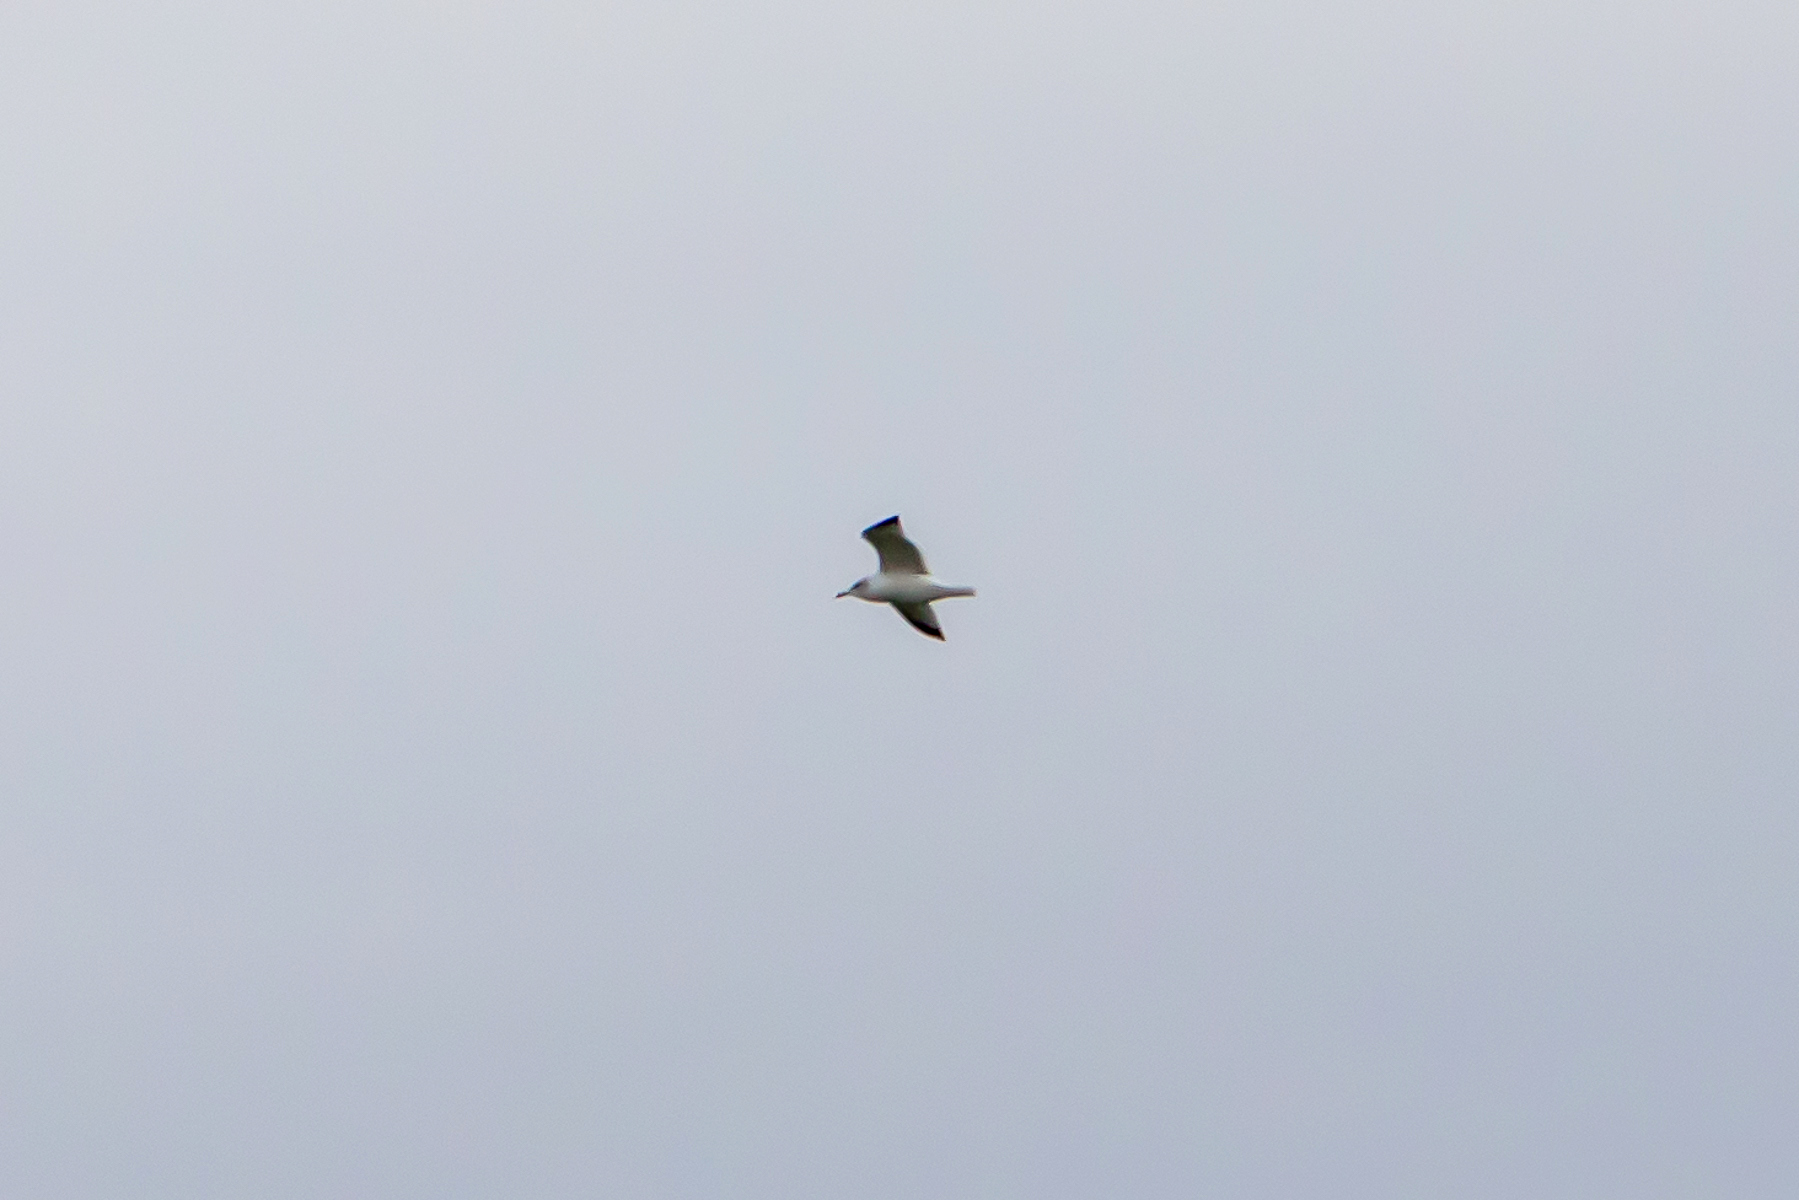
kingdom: Animalia
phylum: Chordata
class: Aves
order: Charadriiformes
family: Laridae
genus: Larus
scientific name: Larus delawarensis
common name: Ring-billed gull
